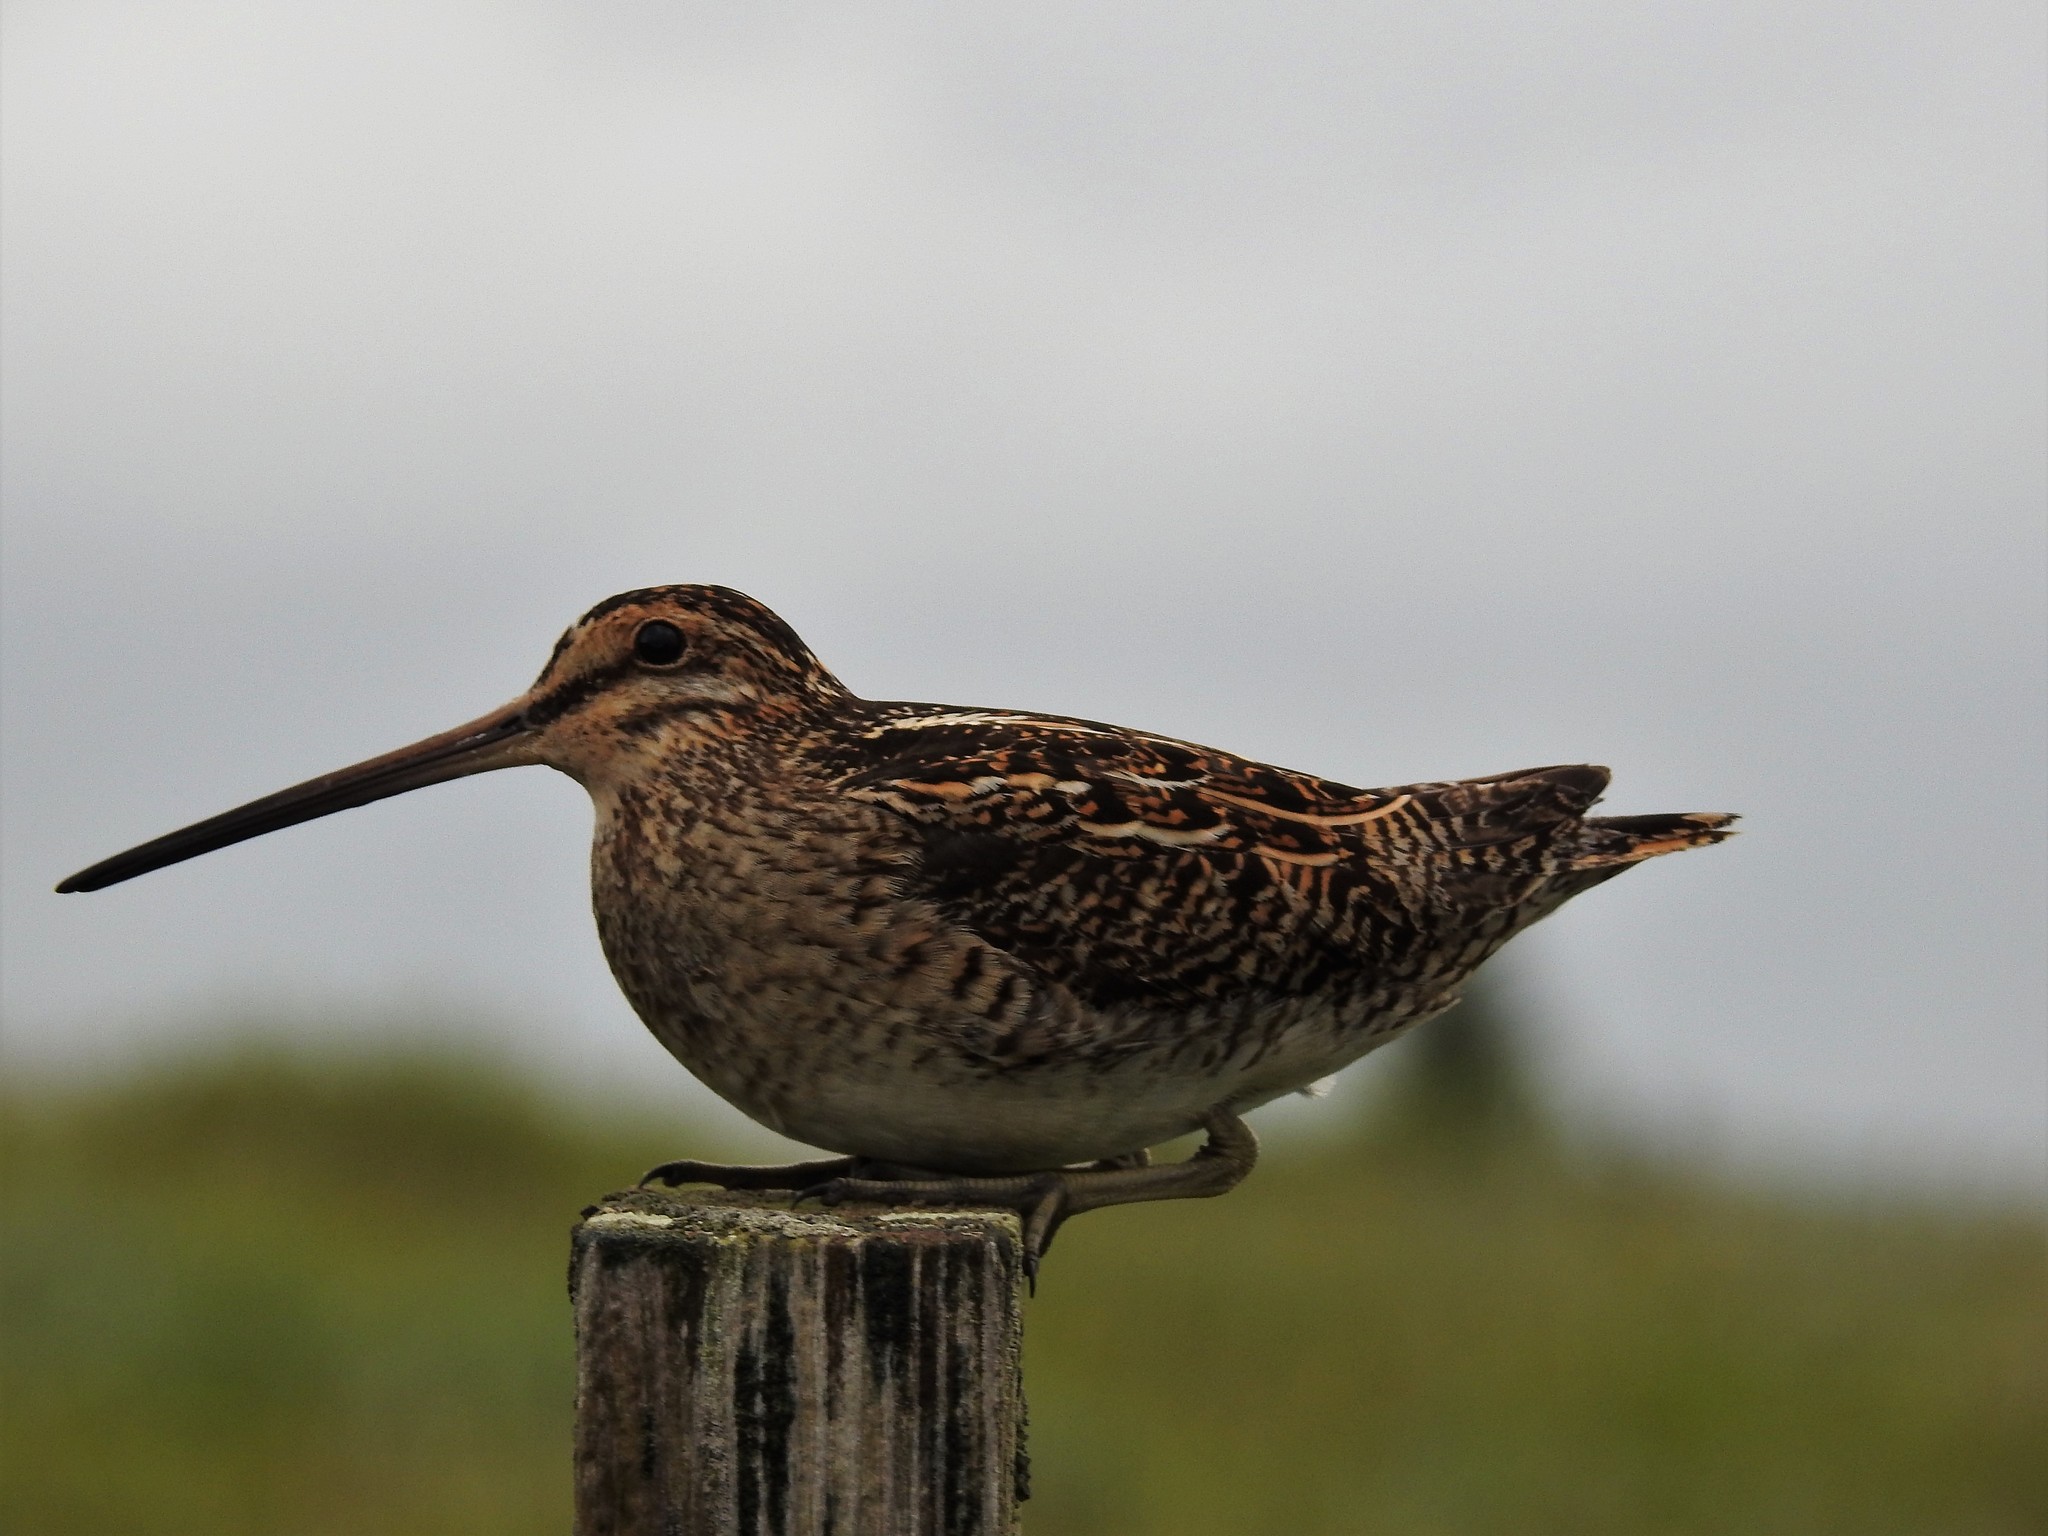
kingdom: Animalia
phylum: Chordata
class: Aves
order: Charadriiformes
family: Scolopacidae
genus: Gallinago
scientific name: Gallinago gallinago
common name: Common snipe
